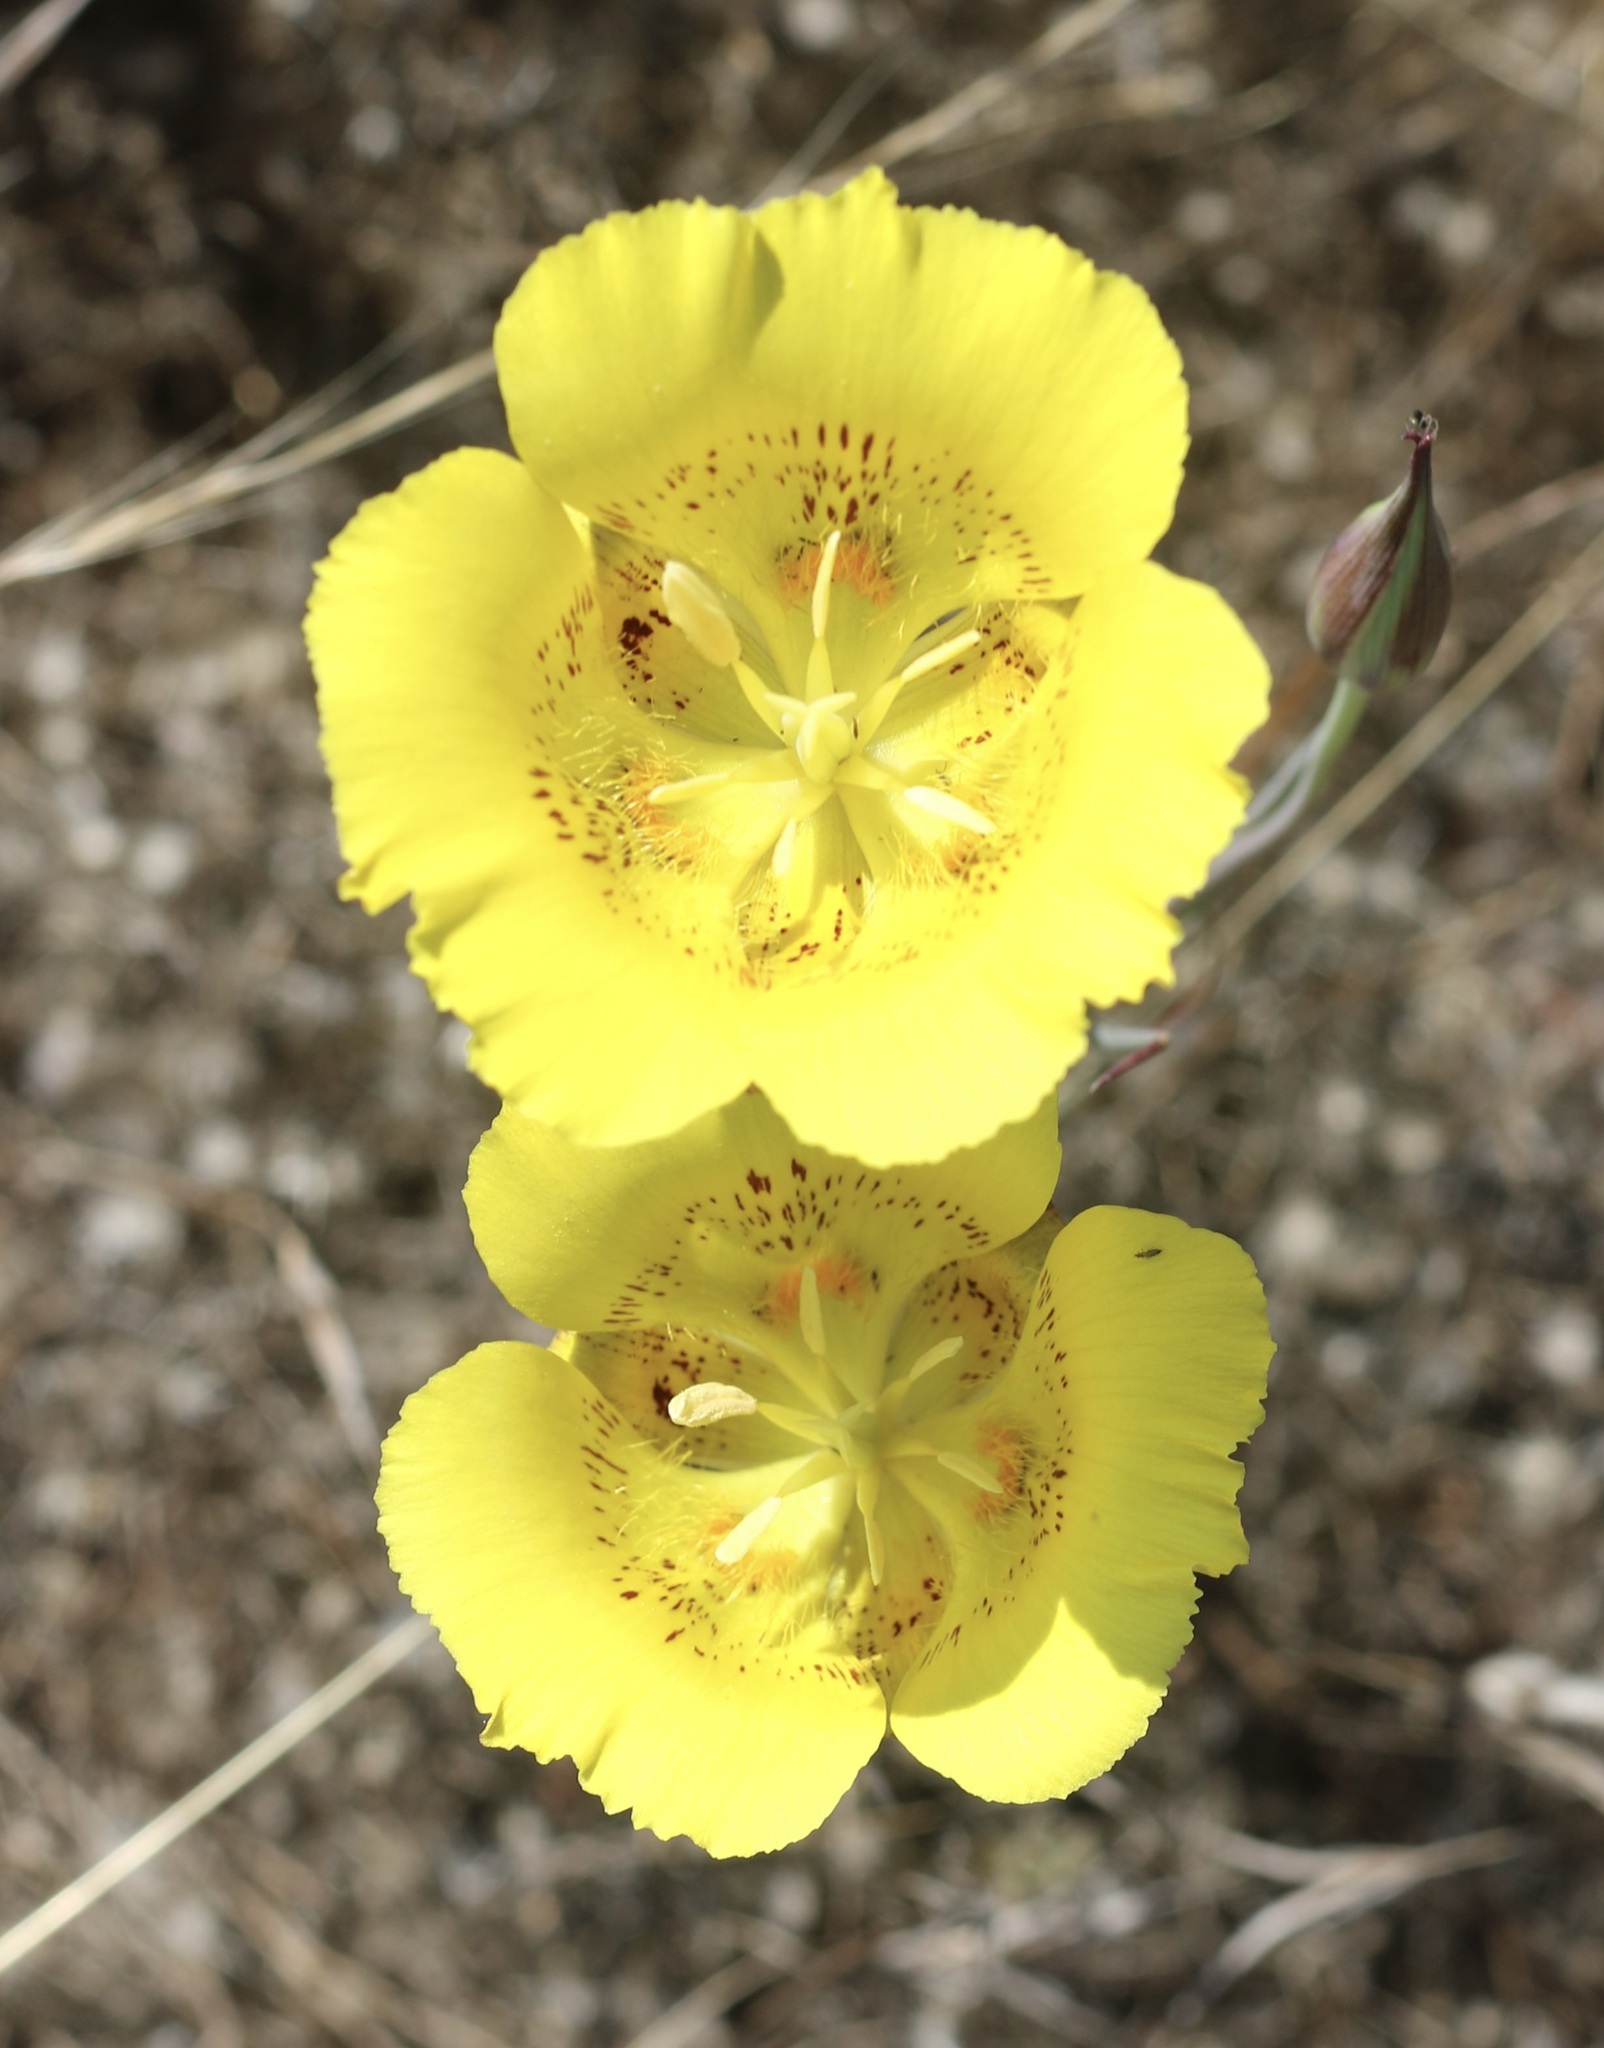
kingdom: Plantae
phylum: Tracheophyta
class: Liliopsida
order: Liliales
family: Liliaceae
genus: Calochortus
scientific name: Calochortus luteus
